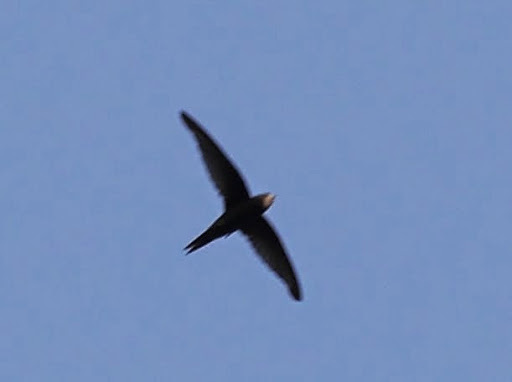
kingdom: Animalia
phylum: Chordata
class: Aves
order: Apodiformes
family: Apodidae
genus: Apus
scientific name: Apus apus
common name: Common swift
